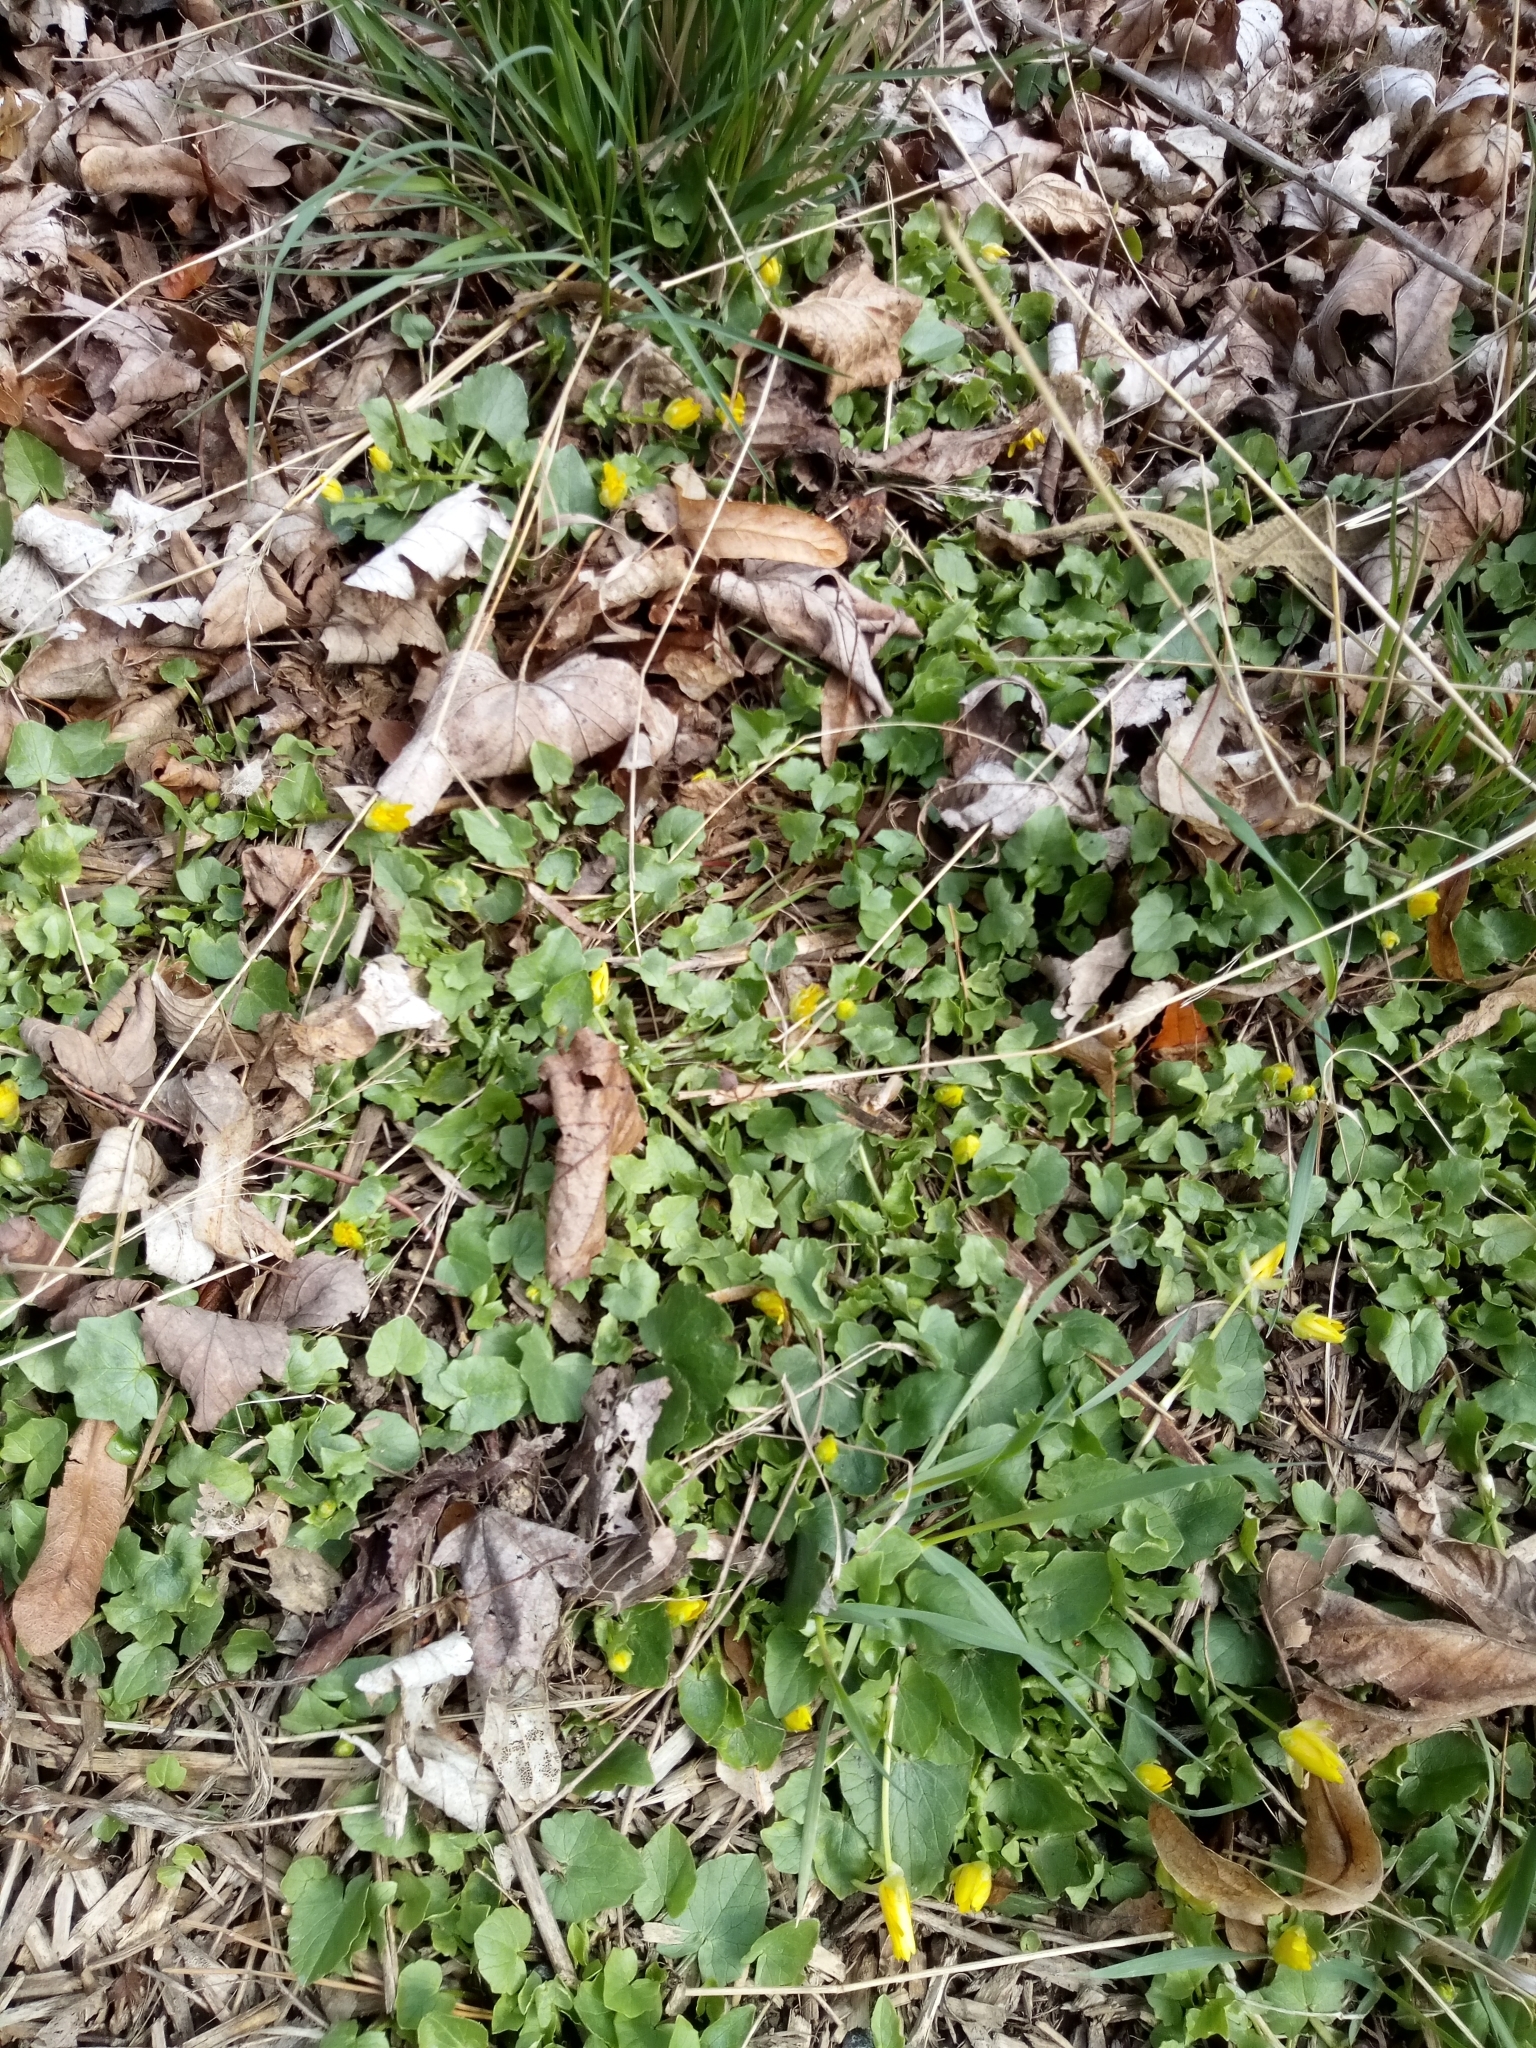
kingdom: Plantae
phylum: Tracheophyta
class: Magnoliopsida
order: Ranunculales
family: Ranunculaceae
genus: Ficaria
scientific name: Ficaria verna
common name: Lesser celandine
